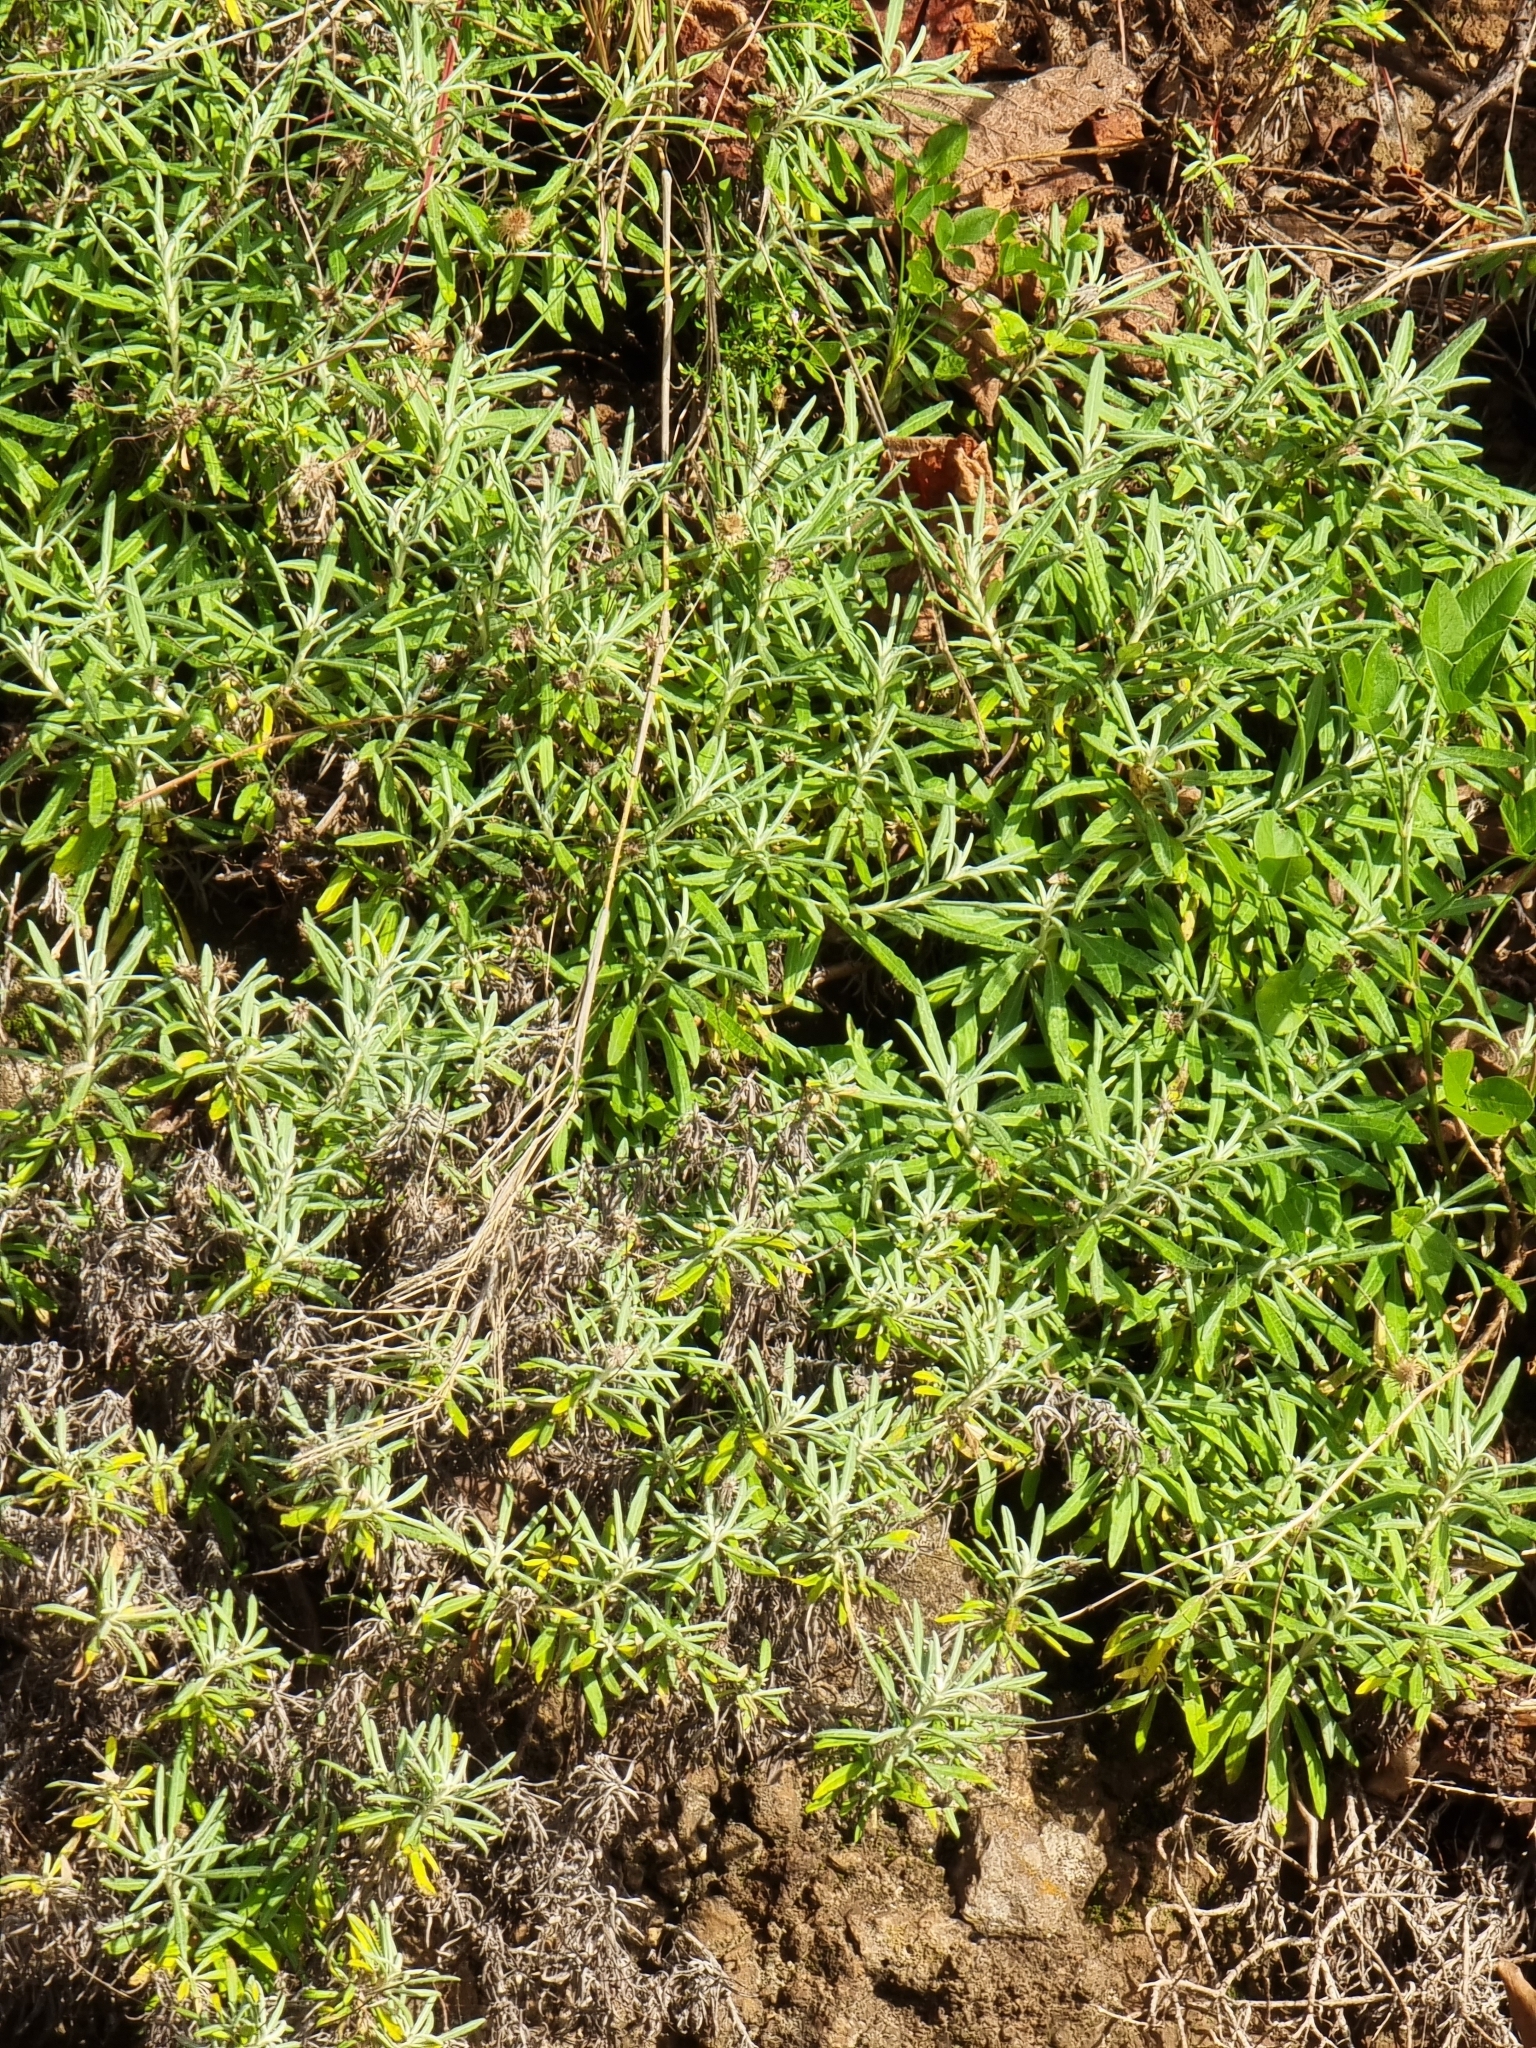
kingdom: Plantae
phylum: Tracheophyta
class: Magnoliopsida
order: Asterales
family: Asteraceae
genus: Phagnalon
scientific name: Phagnalon saxatile
